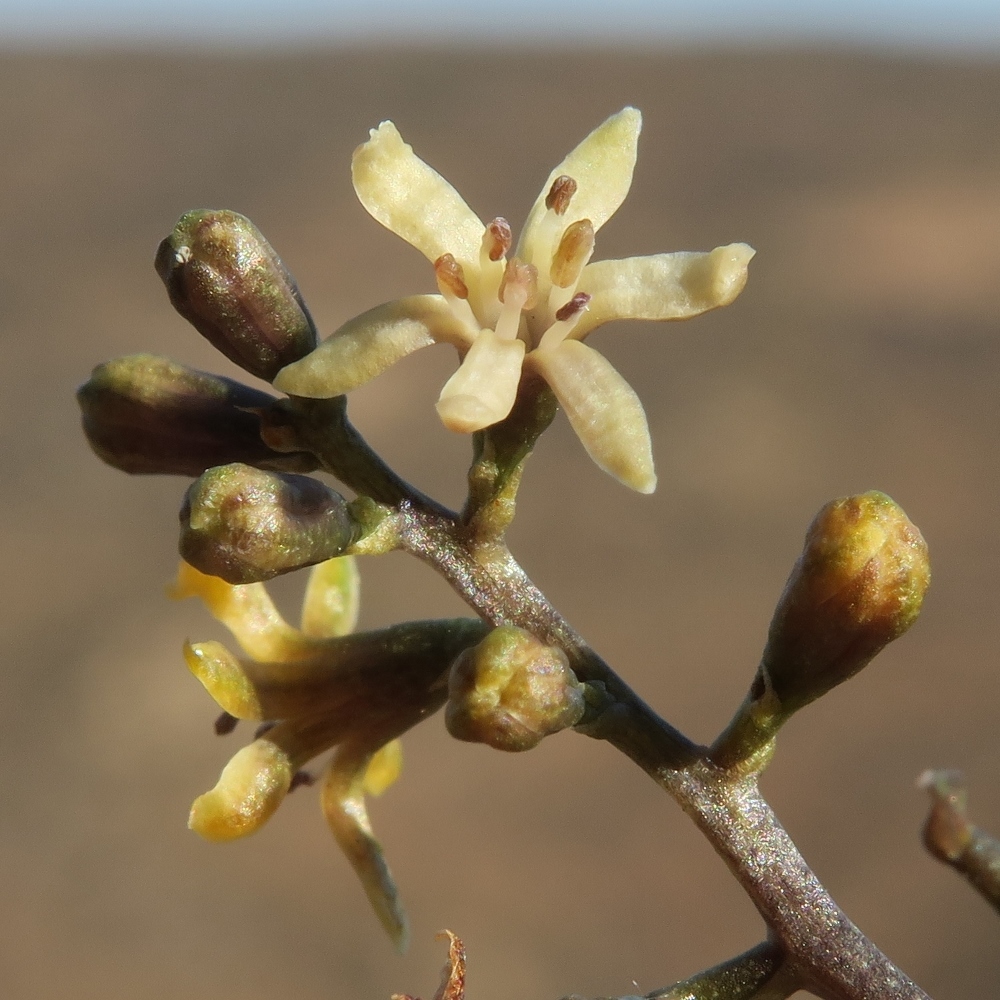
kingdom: Plantae
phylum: Tracheophyta
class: Liliopsida
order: Dioscoreales
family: Dioscoreaceae
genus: Dioscorea
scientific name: Dioscorea elephantipes
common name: Elephant's foot yam
